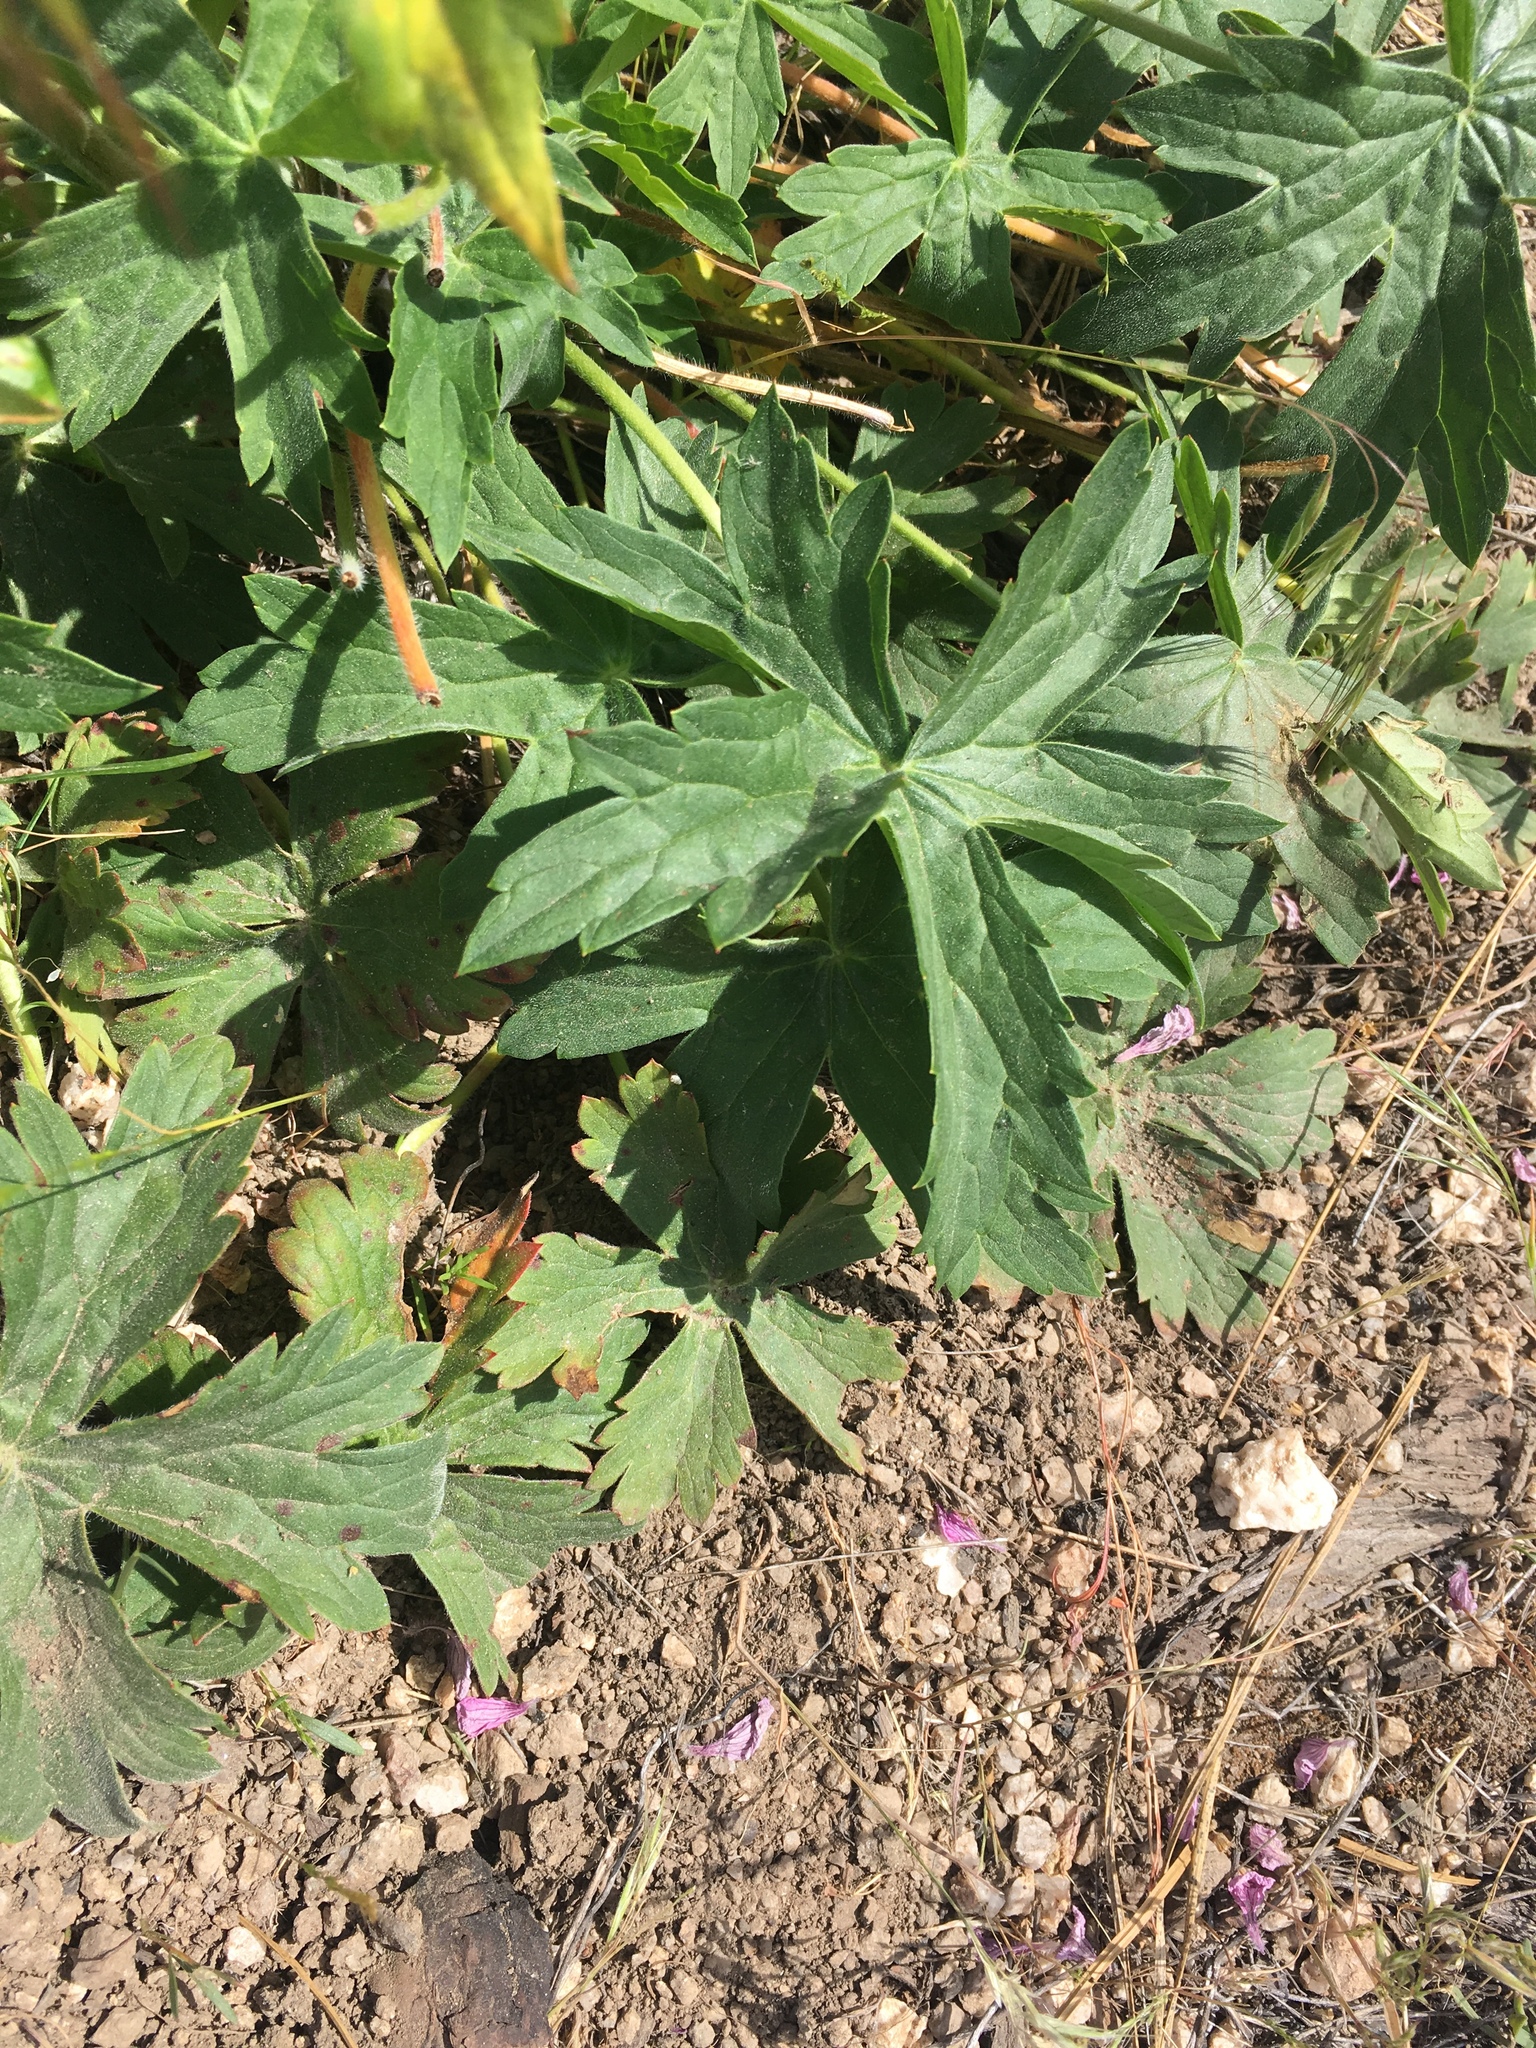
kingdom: Plantae
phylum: Tracheophyta
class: Magnoliopsida
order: Geraniales
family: Geraniaceae
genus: Geranium
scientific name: Geranium viscosissimum
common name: Purple geranium
